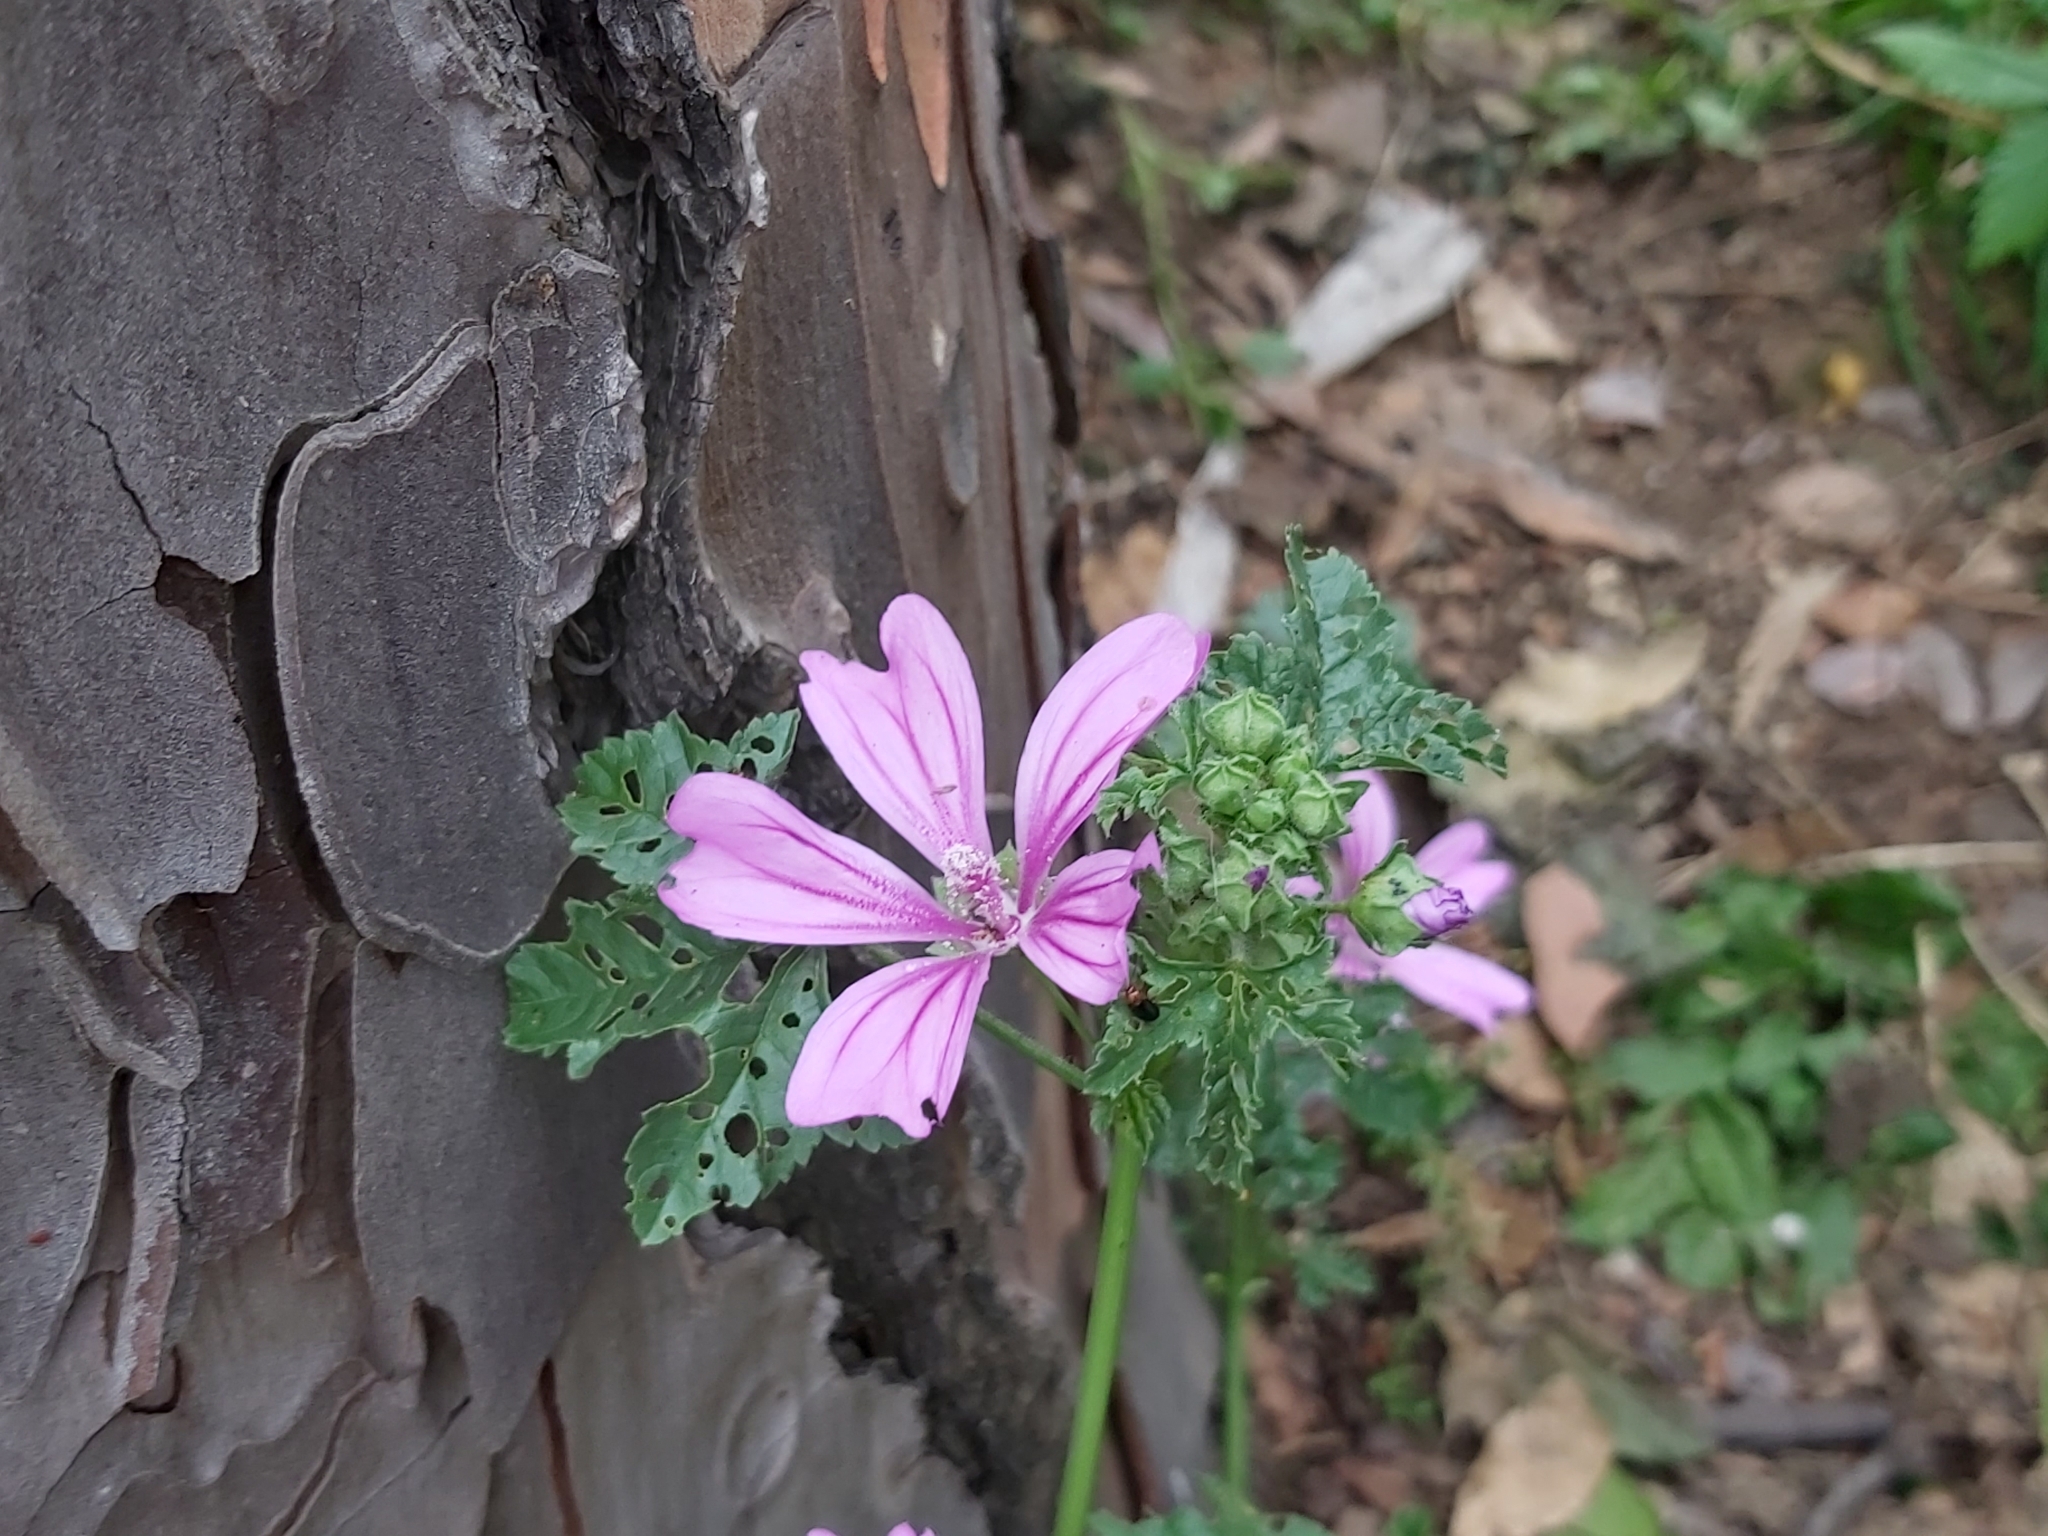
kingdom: Plantae
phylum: Tracheophyta
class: Magnoliopsida
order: Malvales
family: Malvaceae
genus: Malva
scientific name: Malva sylvestris
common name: Common mallow
